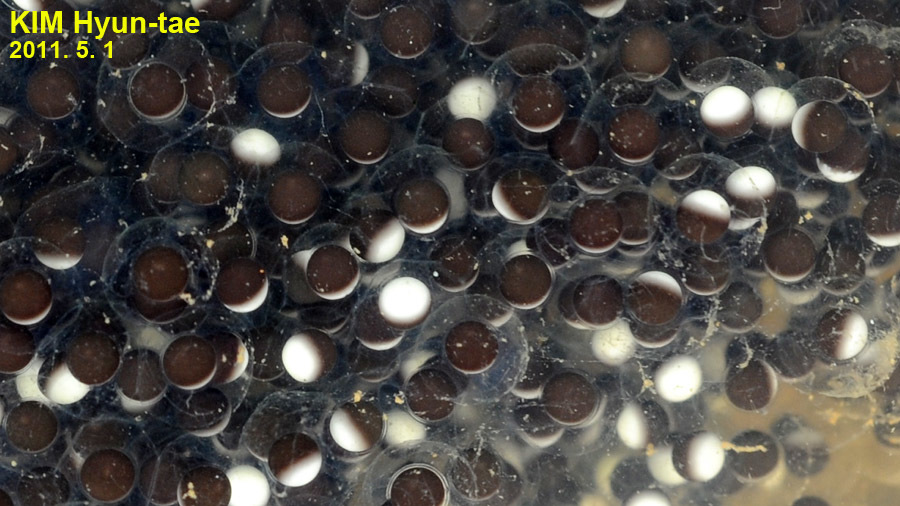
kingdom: Animalia
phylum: Chordata
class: Amphibia
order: Anura
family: Ranidae
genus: Pelophylax
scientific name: Pelophylax nigromaculatus
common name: Black-spotted pond frog
